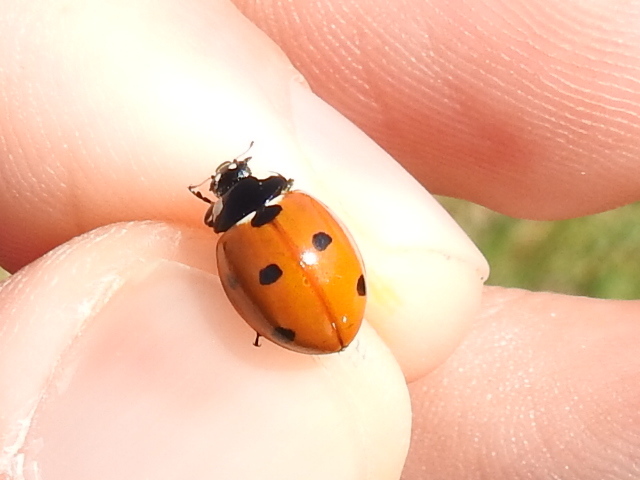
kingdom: Animalia
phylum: Arthropoda
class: Insecta
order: Coleoptera
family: Coccinellidae
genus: Coccinella
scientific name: Coccinella septempunctata
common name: Sevenspotted lady beetle
